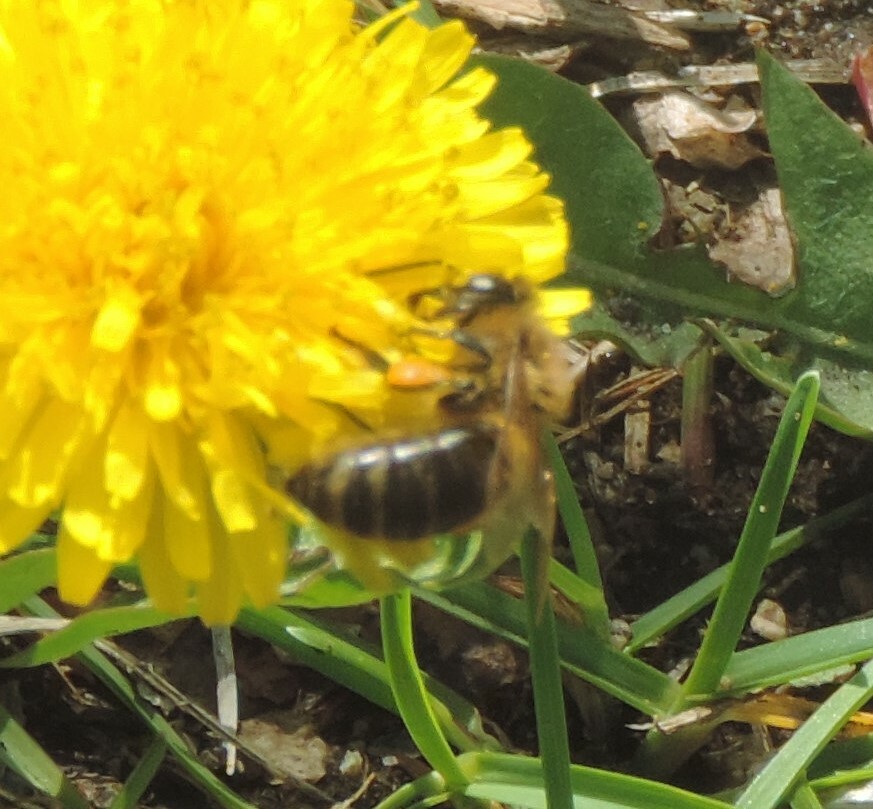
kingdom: Animalia
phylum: Arthropoda
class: Insecta
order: Hymenoptera
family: Apidae
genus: Apis
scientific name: Apis mellifera
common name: Honey bee
